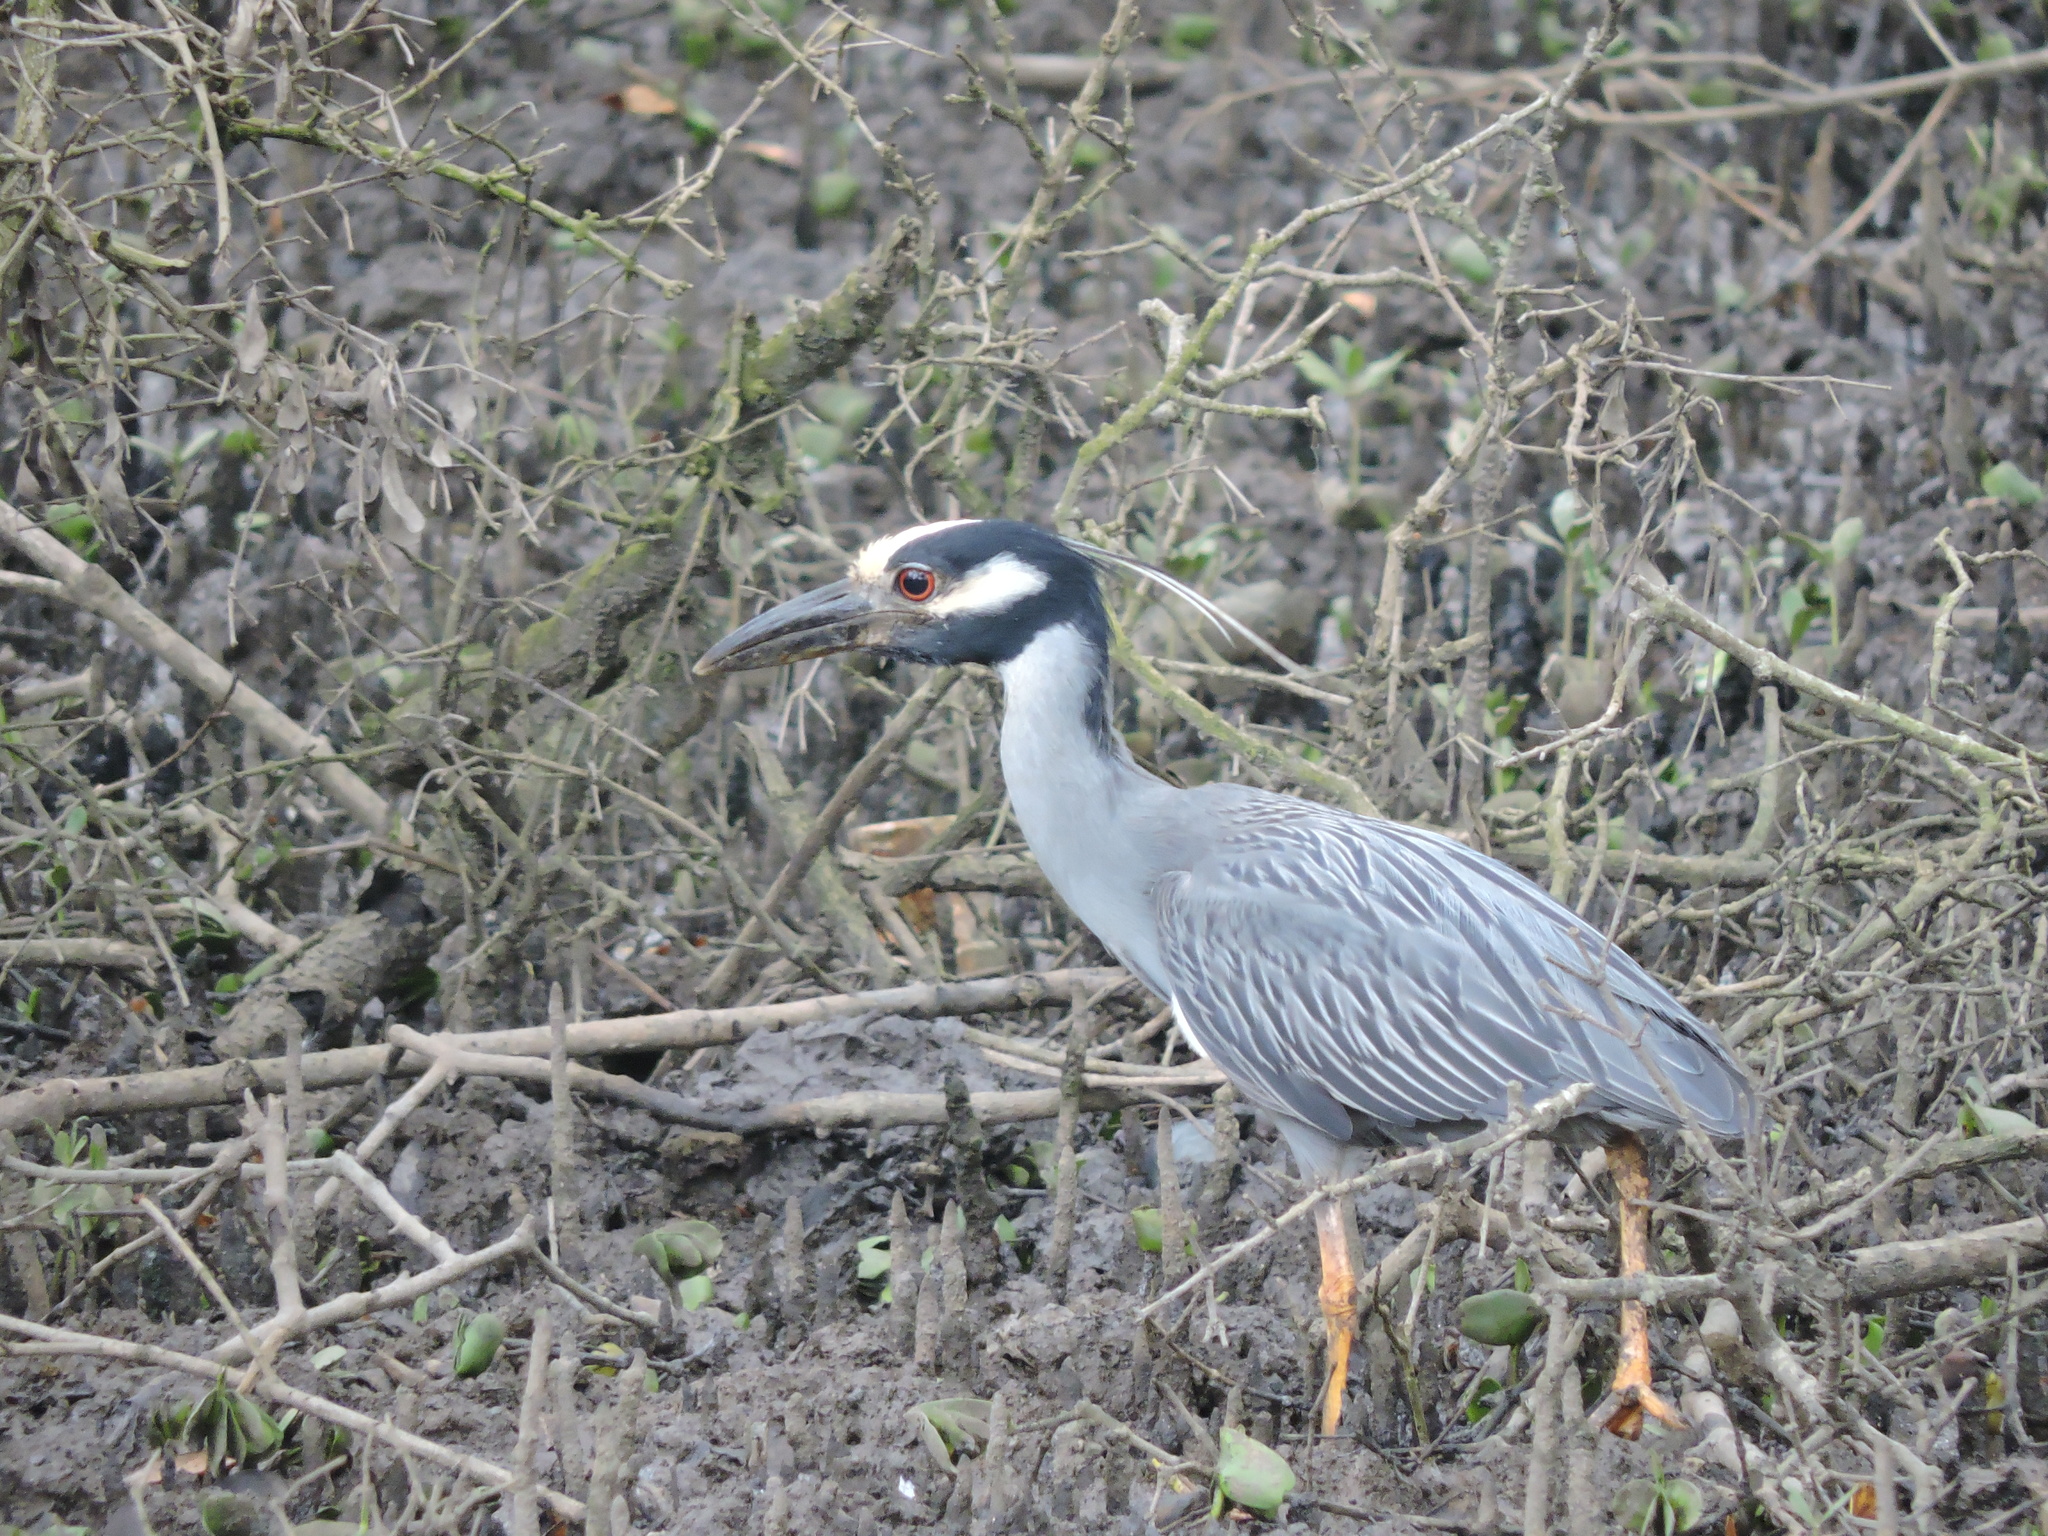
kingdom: Animalia
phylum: Chordata
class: Aves
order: Pelecaniformes
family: Ardeidae
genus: Nyctanassa
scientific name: Nyctanassa violacea
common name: Yellow-crowned night heron
